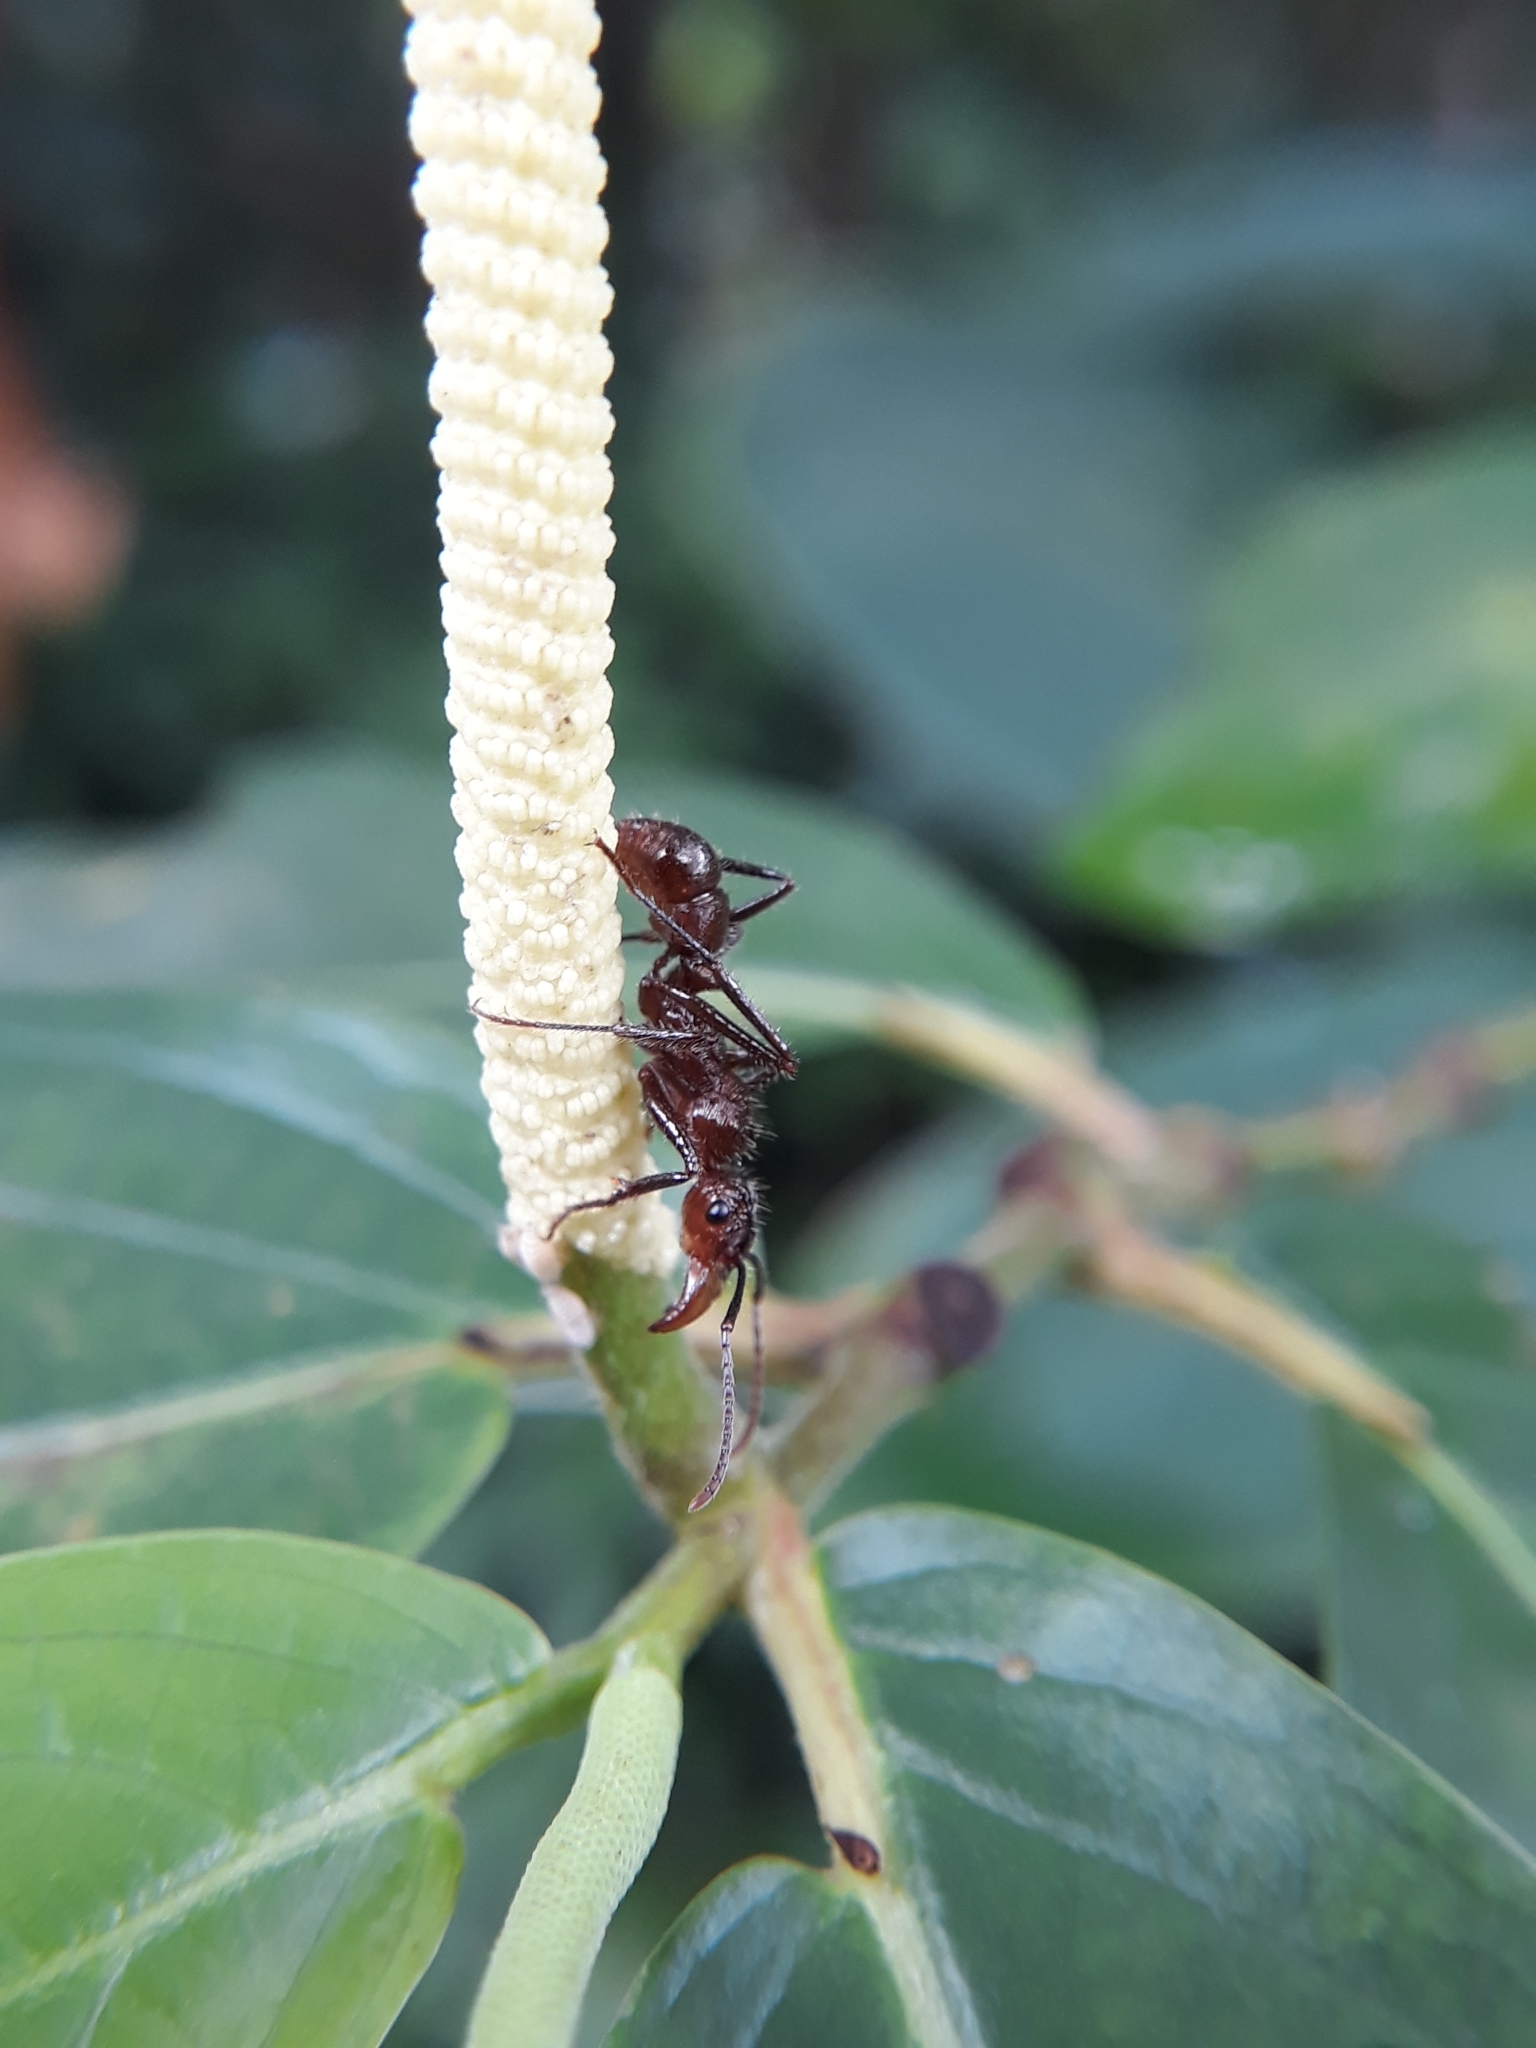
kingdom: Animalia
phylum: Arthropoda
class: Insecta
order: Hymenoptera
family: Formicidae
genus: Ectatomma
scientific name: Ectatomma tuberculatum
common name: Ant
